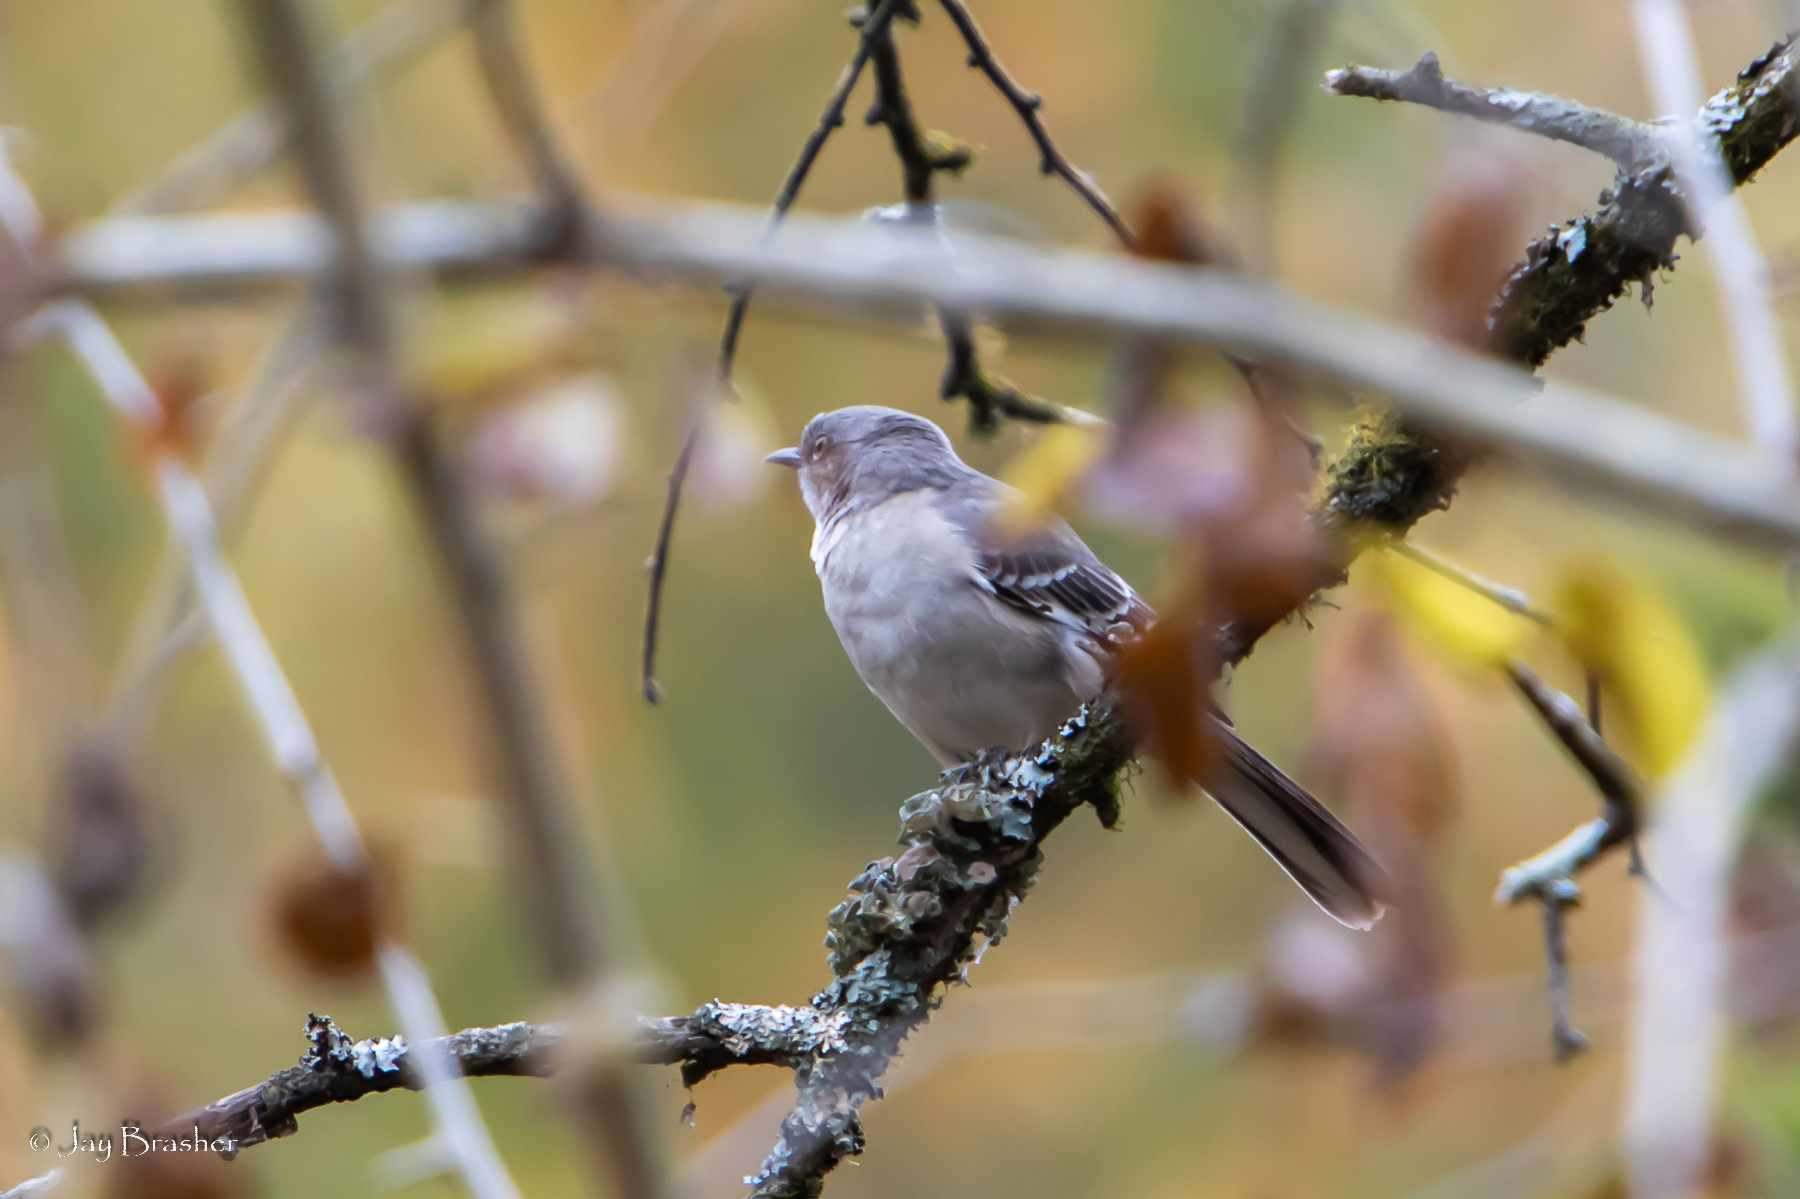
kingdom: Animalia
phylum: Chordata
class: Aves
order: Passeriformes
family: Mimidae
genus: Mimus
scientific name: Mimus polyglottos
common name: Northern mockingbird
